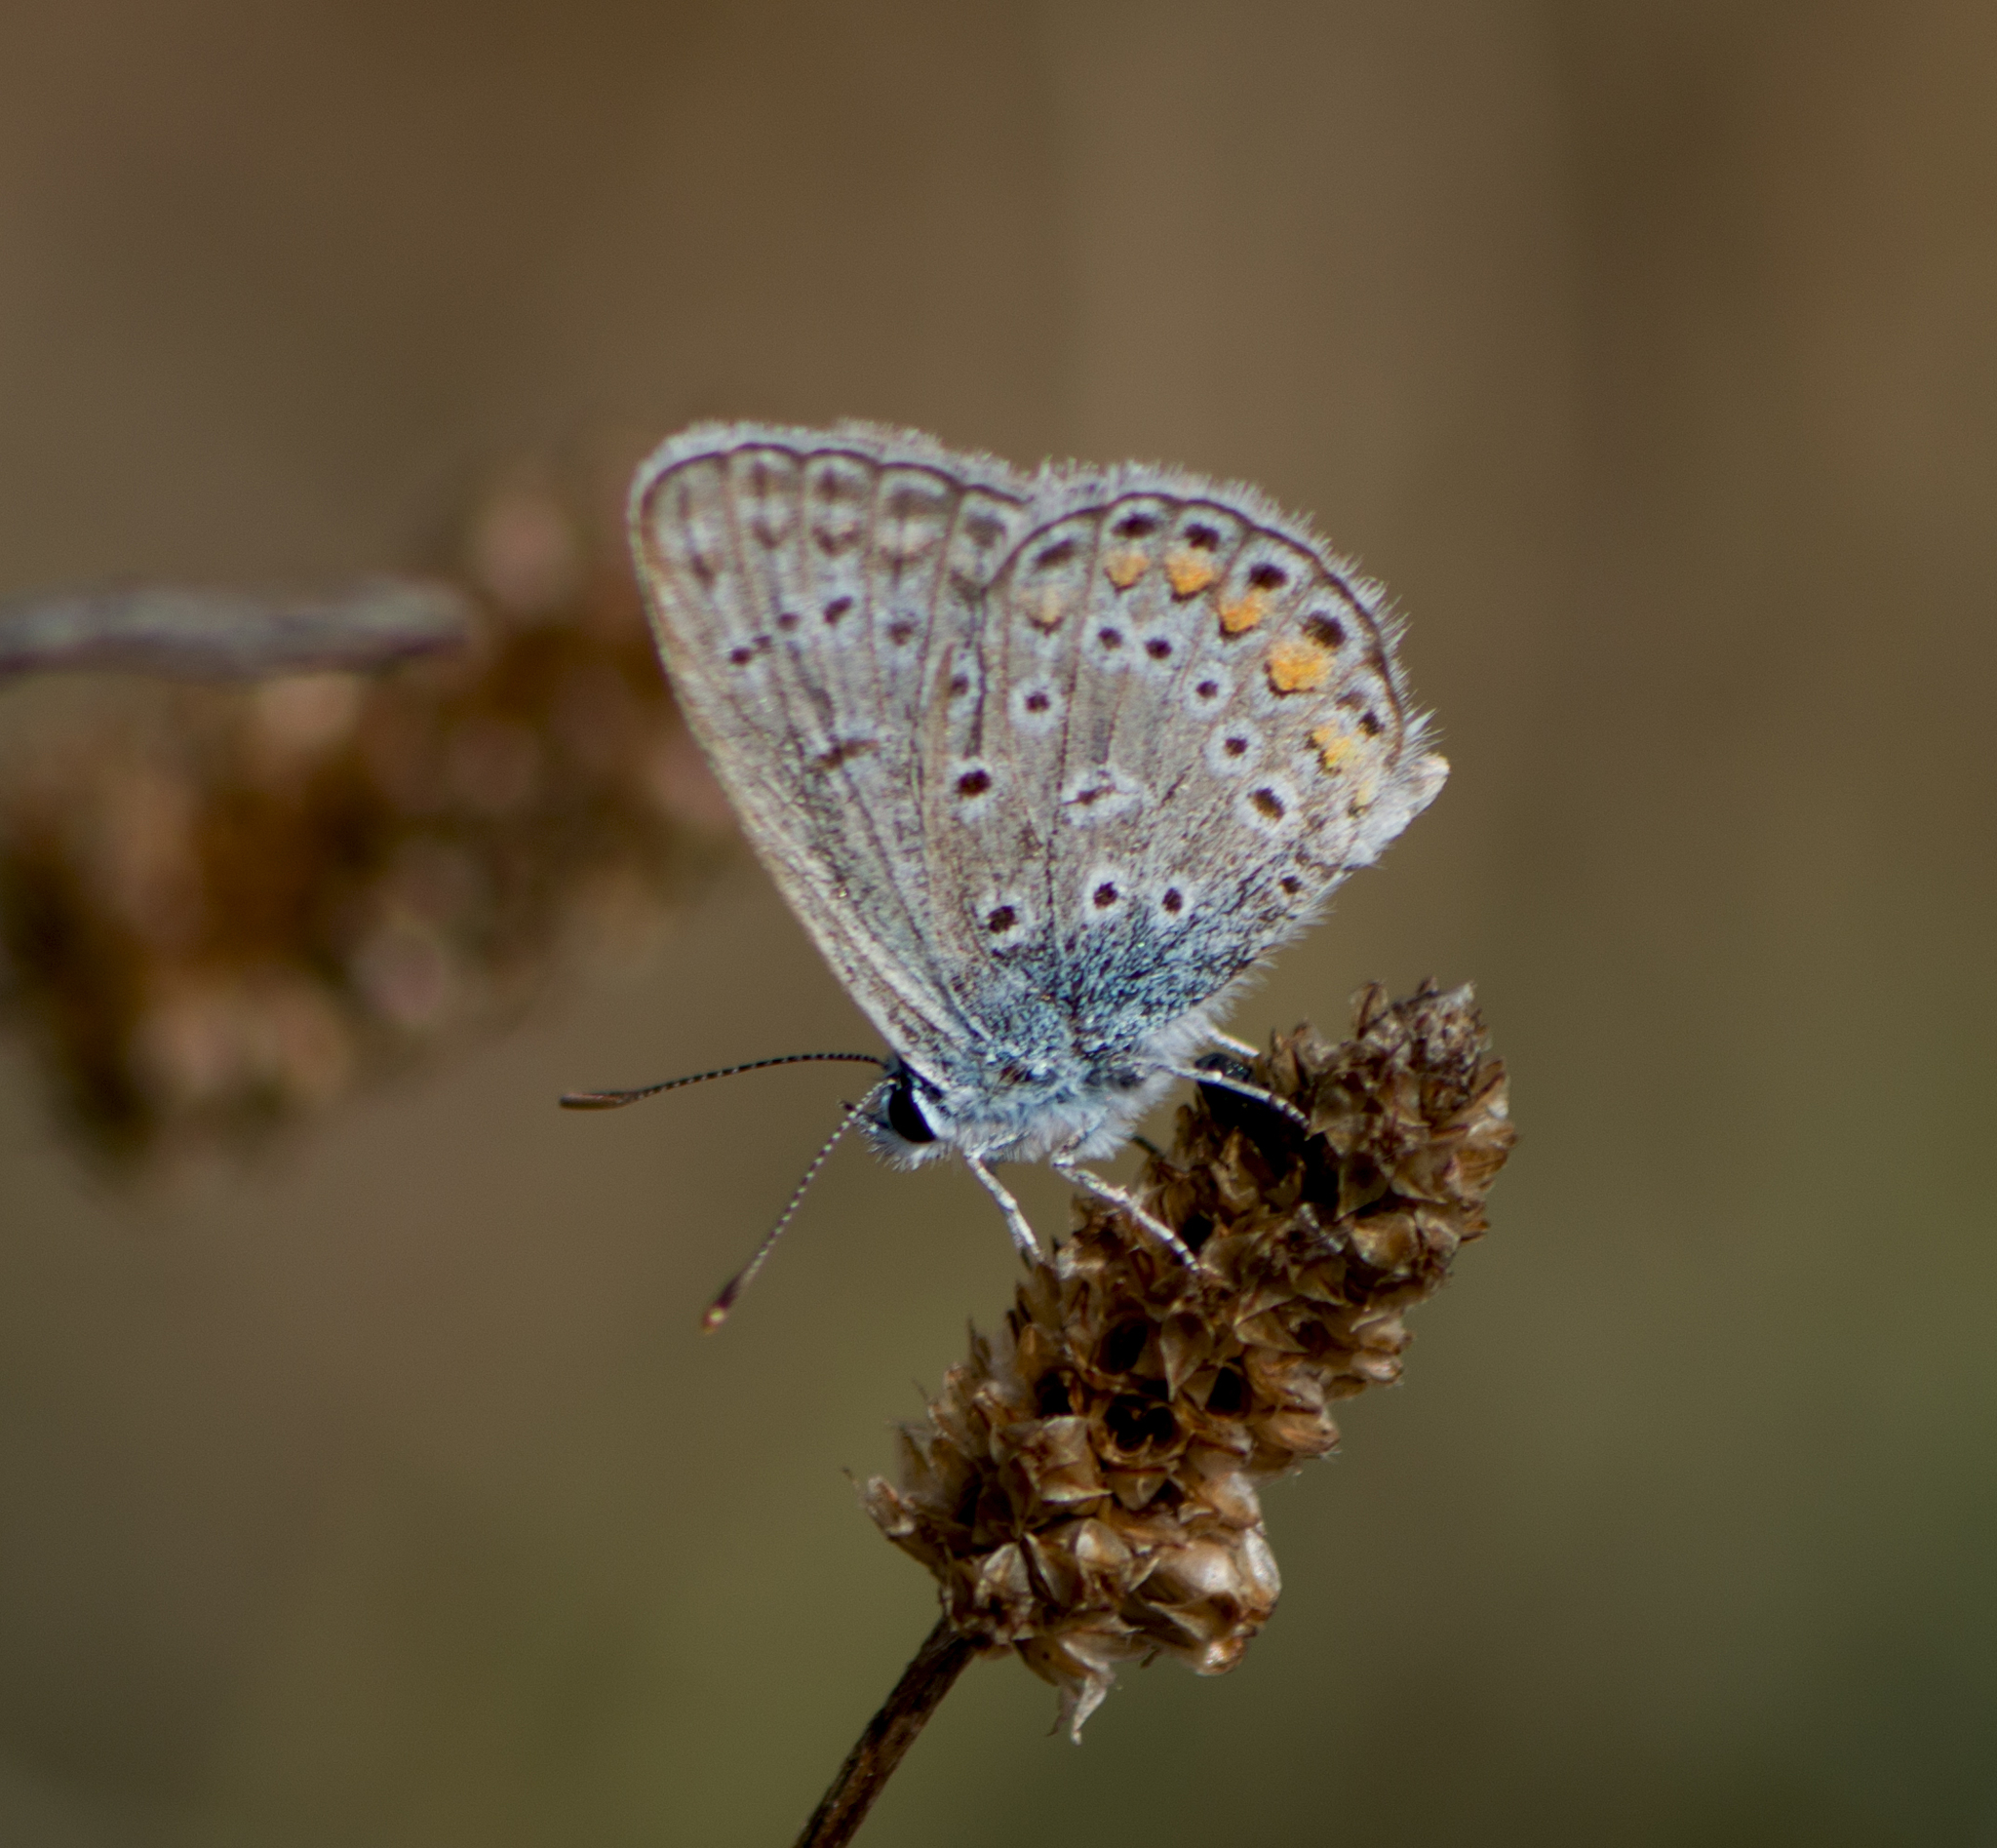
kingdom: Animalia
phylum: Arthropoda
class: Insecta
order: Lepidoptera
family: Lycaenidae
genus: Polyommatus
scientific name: Polyommatus icarus
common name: Common blue
